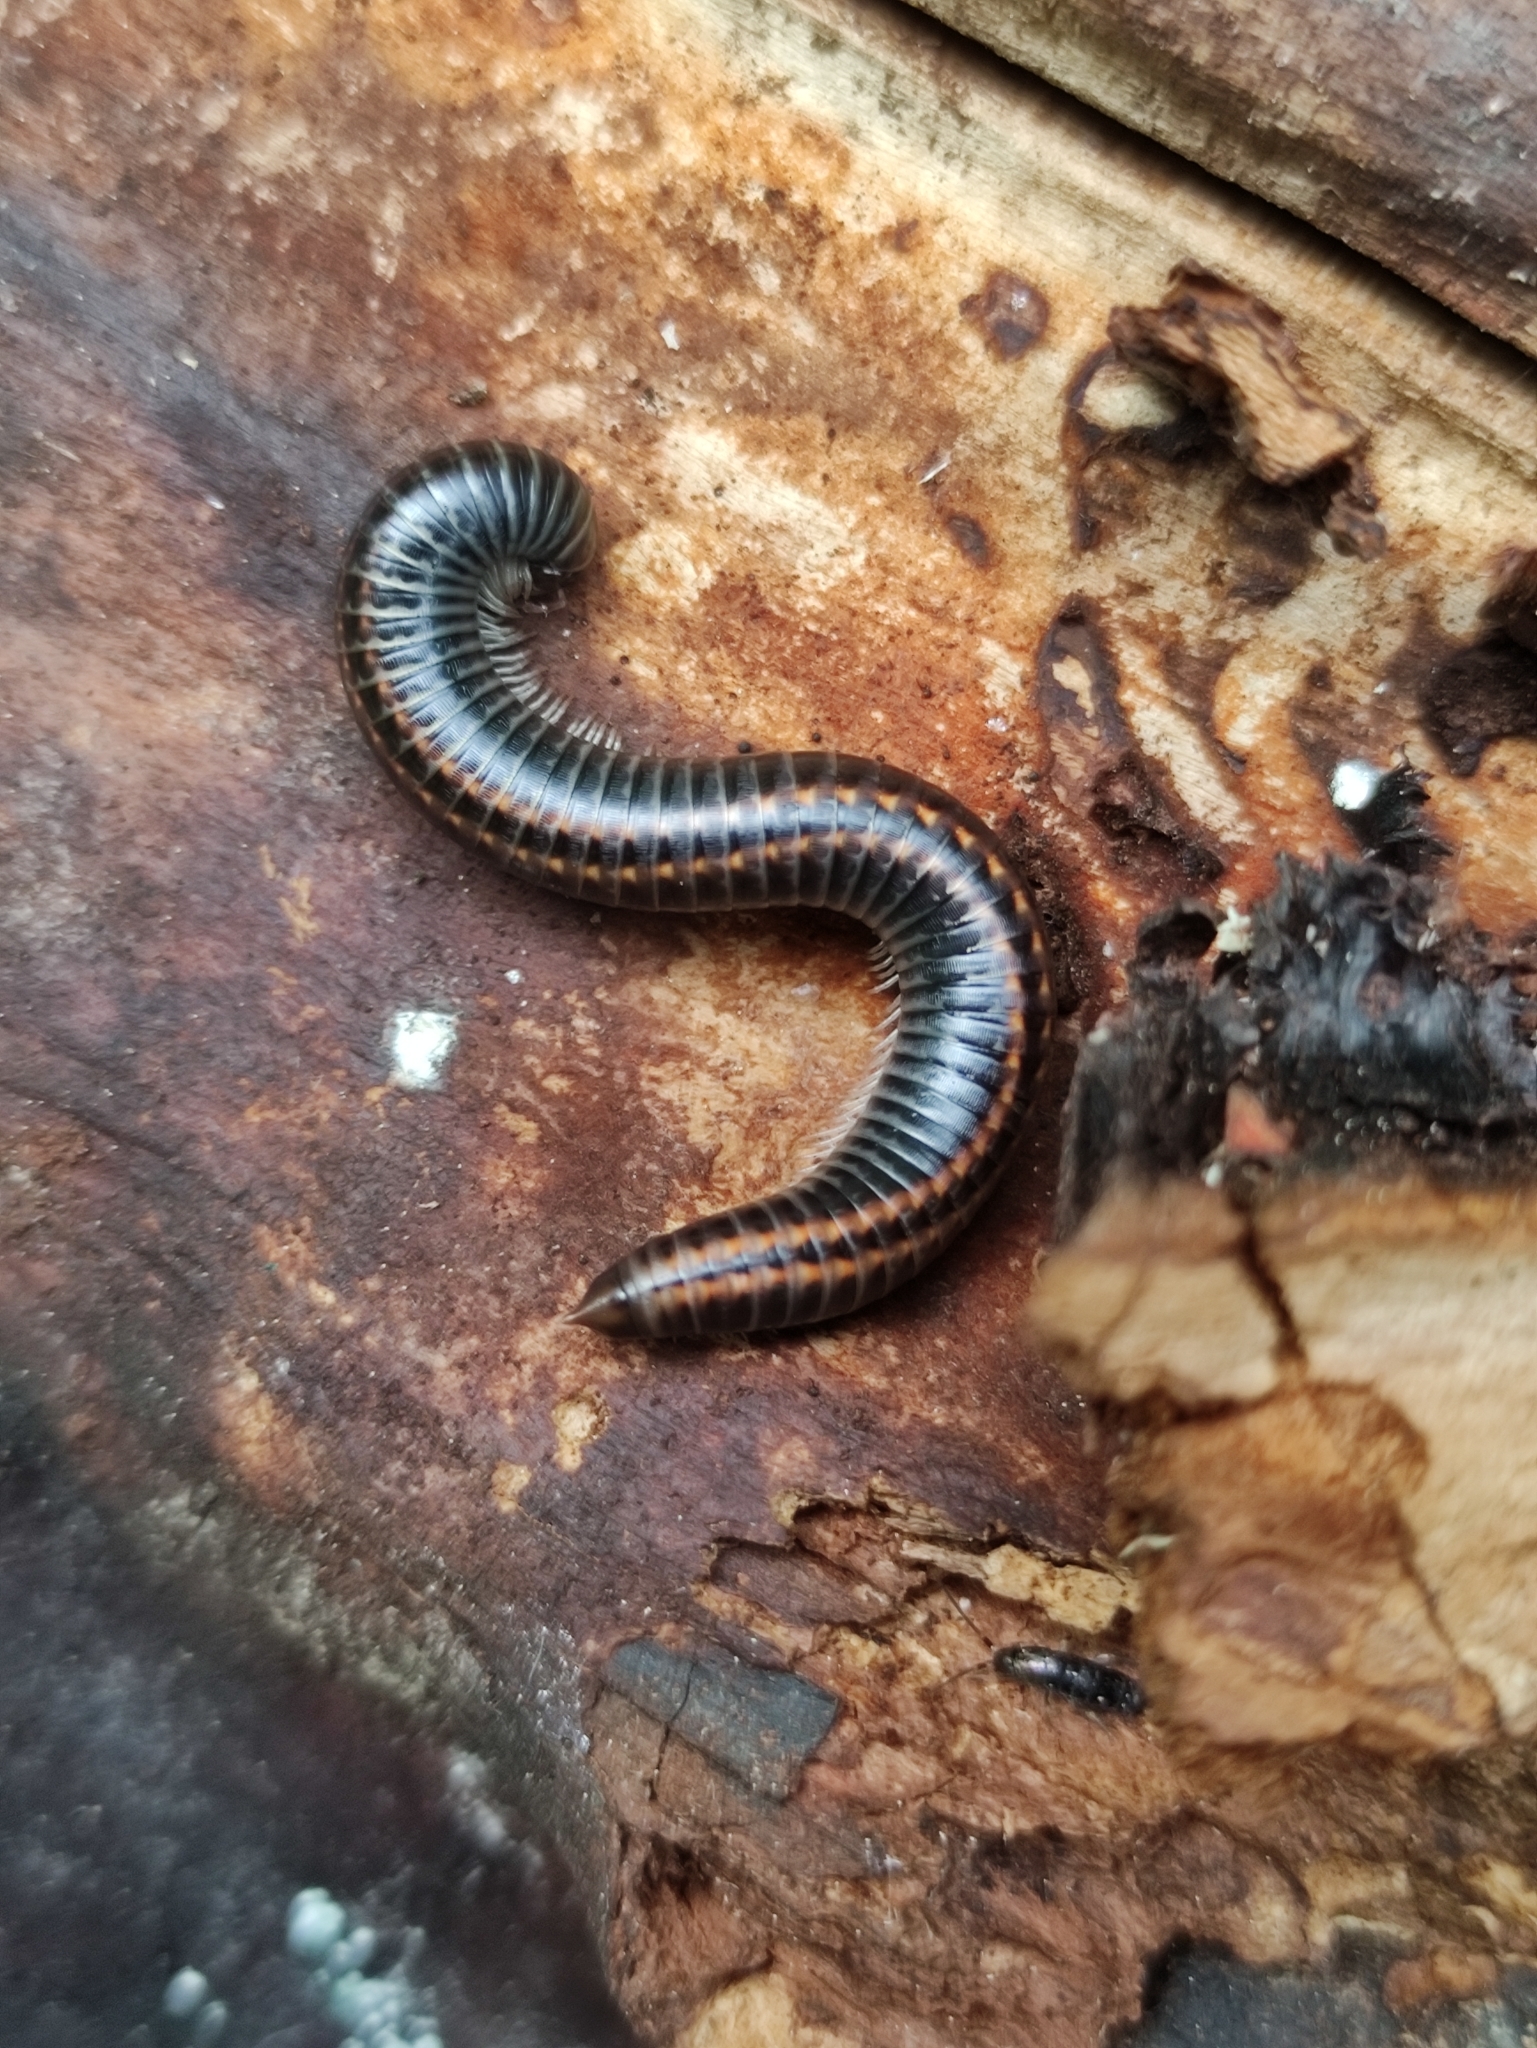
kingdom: Animalia
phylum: Arthropoda
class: Diplopoda
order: Julida
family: Julidae
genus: Ommatoiulus
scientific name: Ommatoiulus sabulosus
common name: Striped millipede
